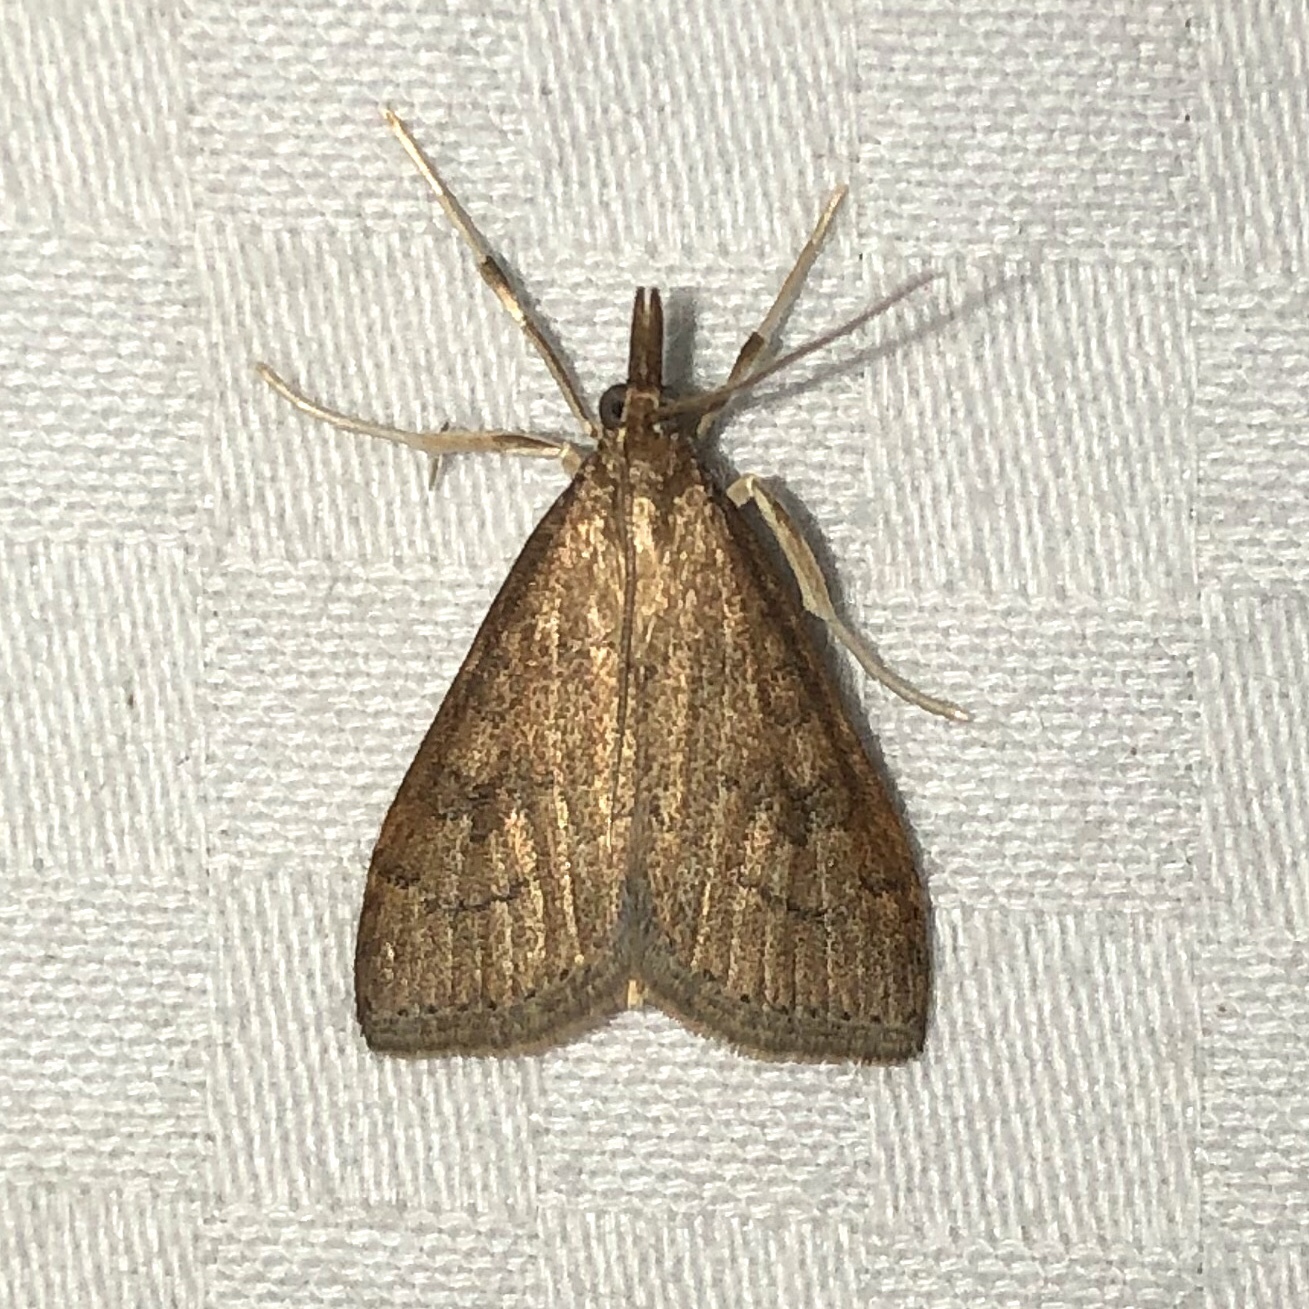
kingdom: Animalia
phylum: Arthropoda
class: Insecta
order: Lepidoptera
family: Crambidae
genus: Udea
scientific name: Udea rubigalis
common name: Celery leaftier moth
